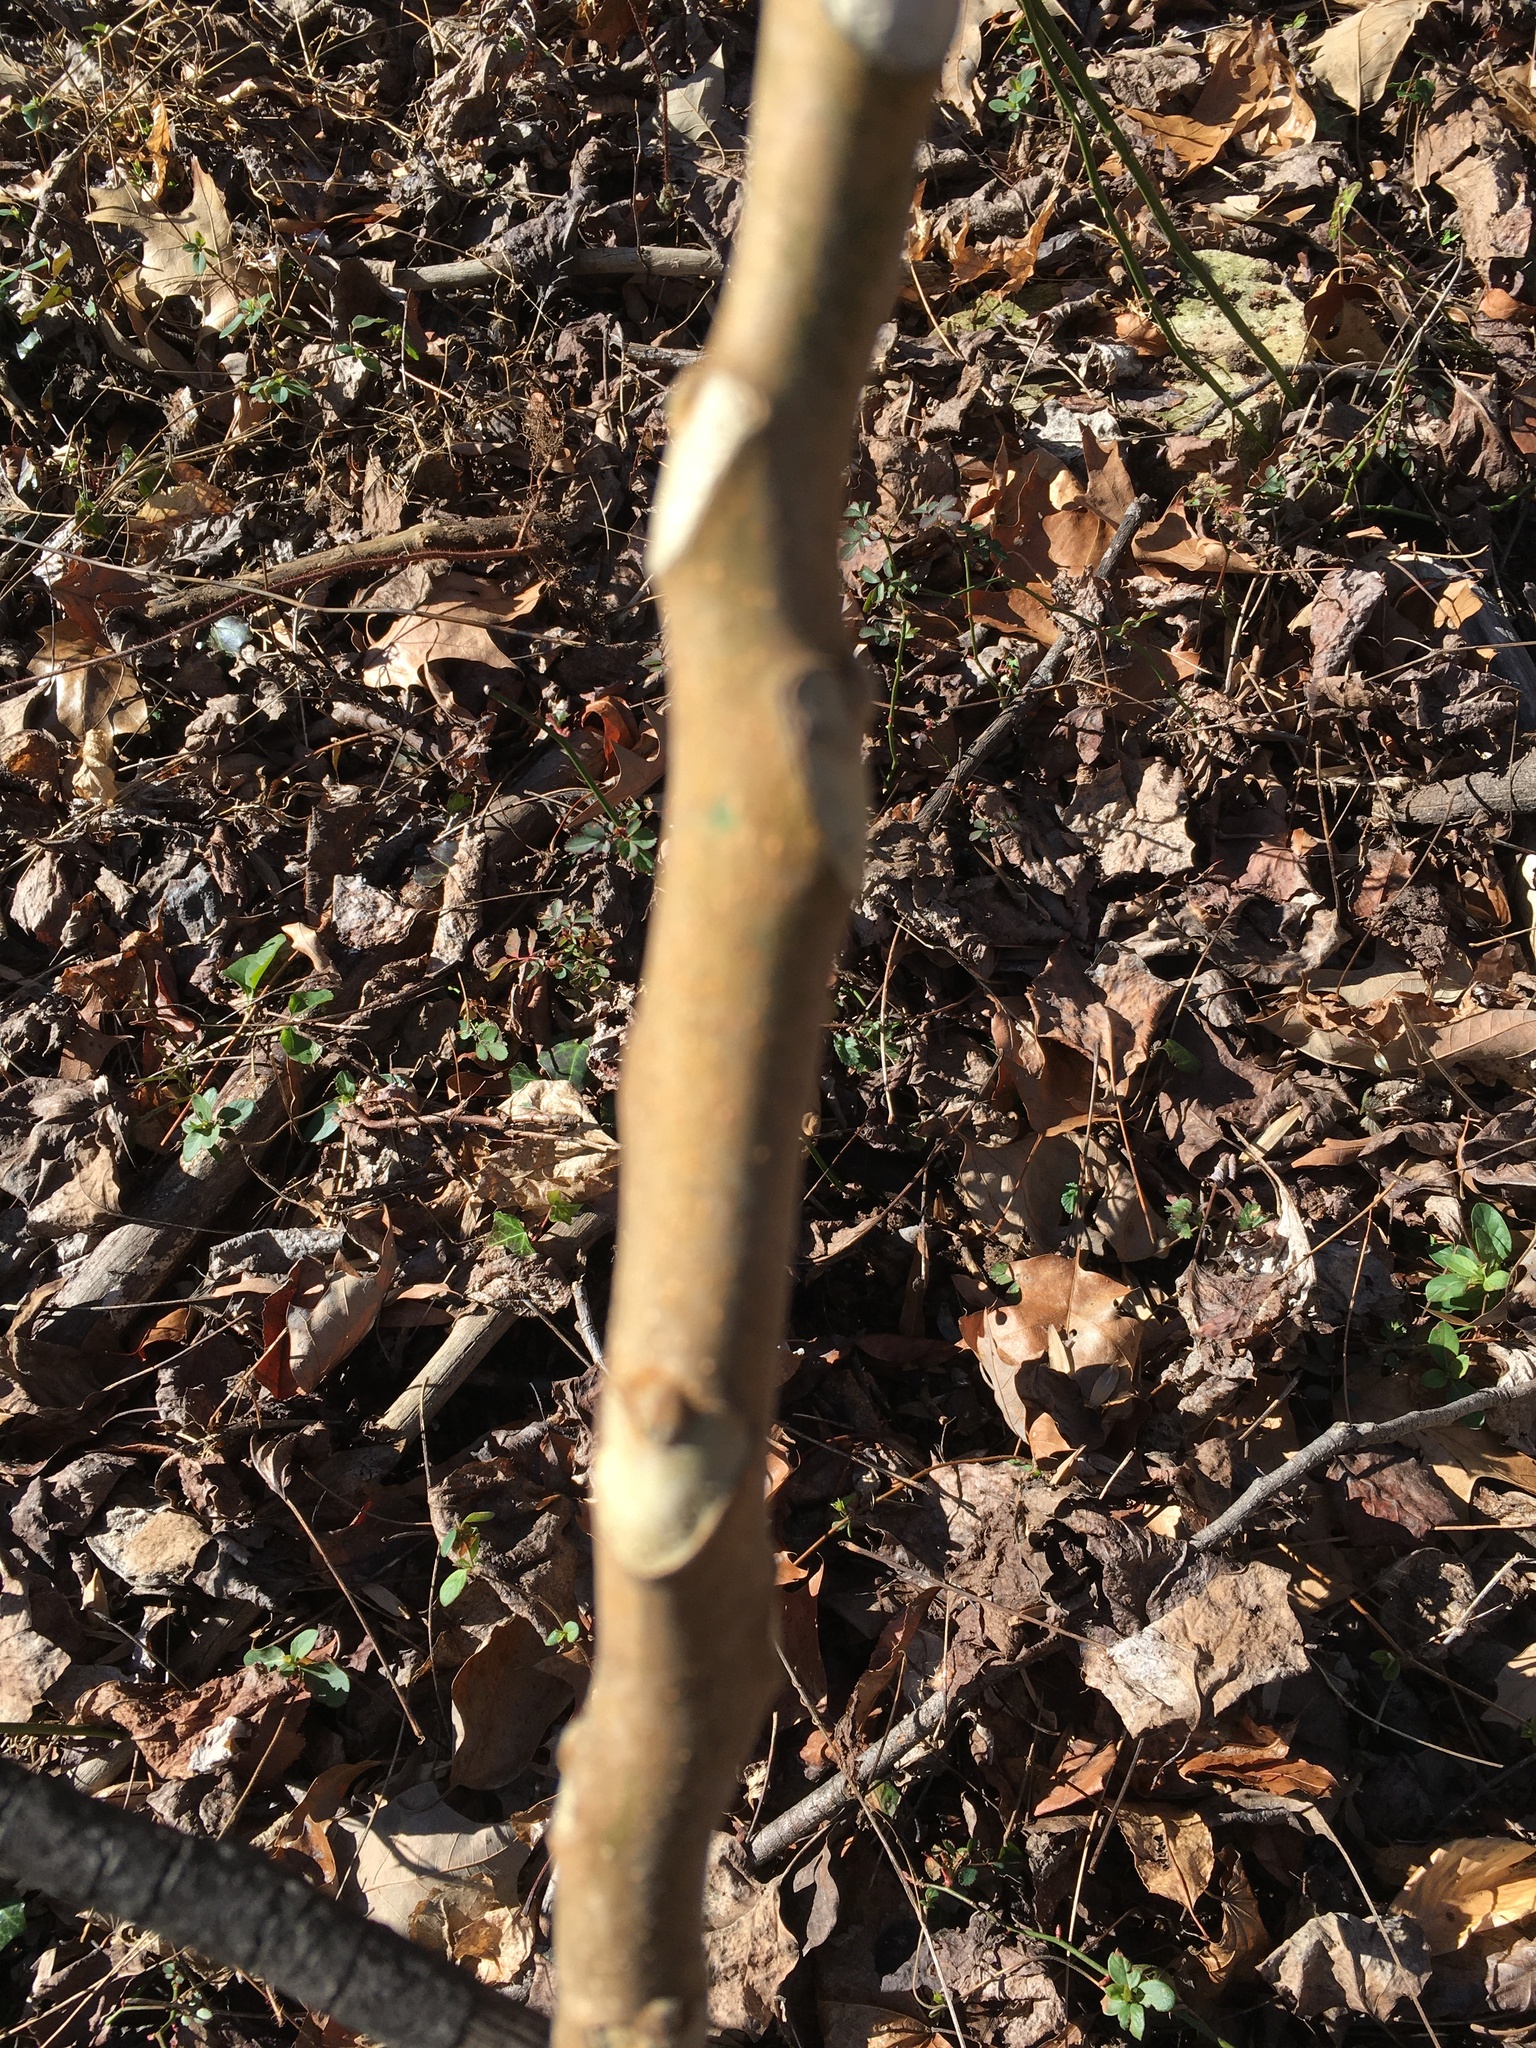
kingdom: Plantae
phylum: Tracheophyta
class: Magnoliopsida
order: Sapindales
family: Simaroubaceae
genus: Ailanthus
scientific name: Ailanthus altissima
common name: Tree-of-heaven
